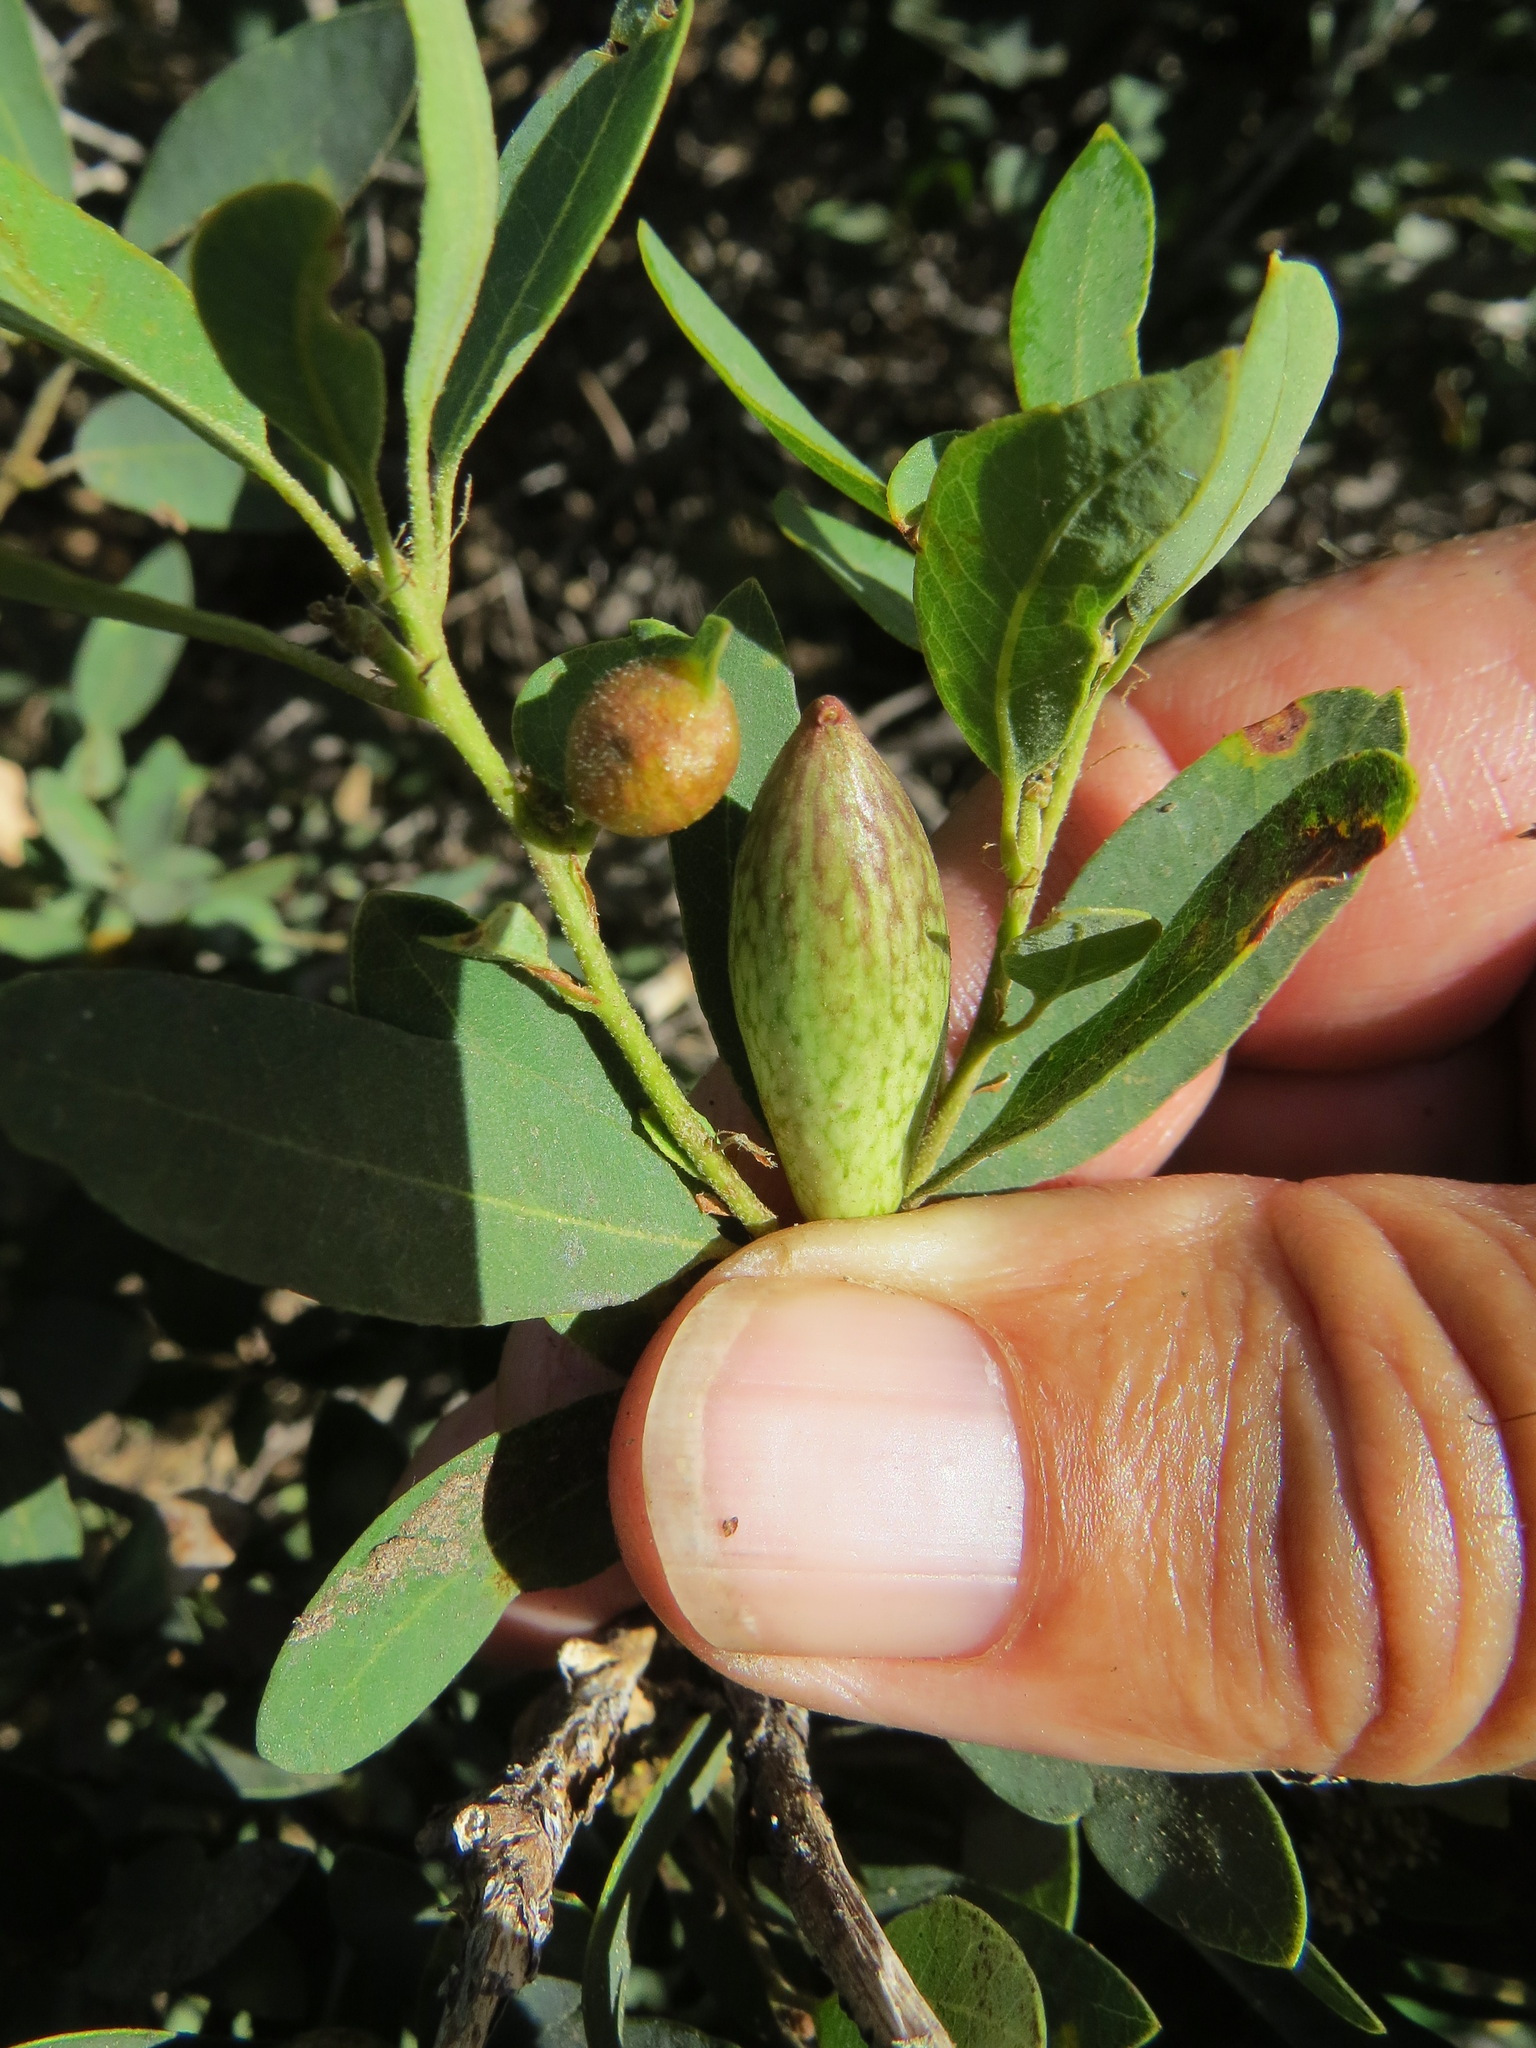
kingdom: Animalia
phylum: Arthropoda
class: Insecta
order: Hymenoptera
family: Cynipidae
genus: Heteroecus
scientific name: Heteroecus pacificus
